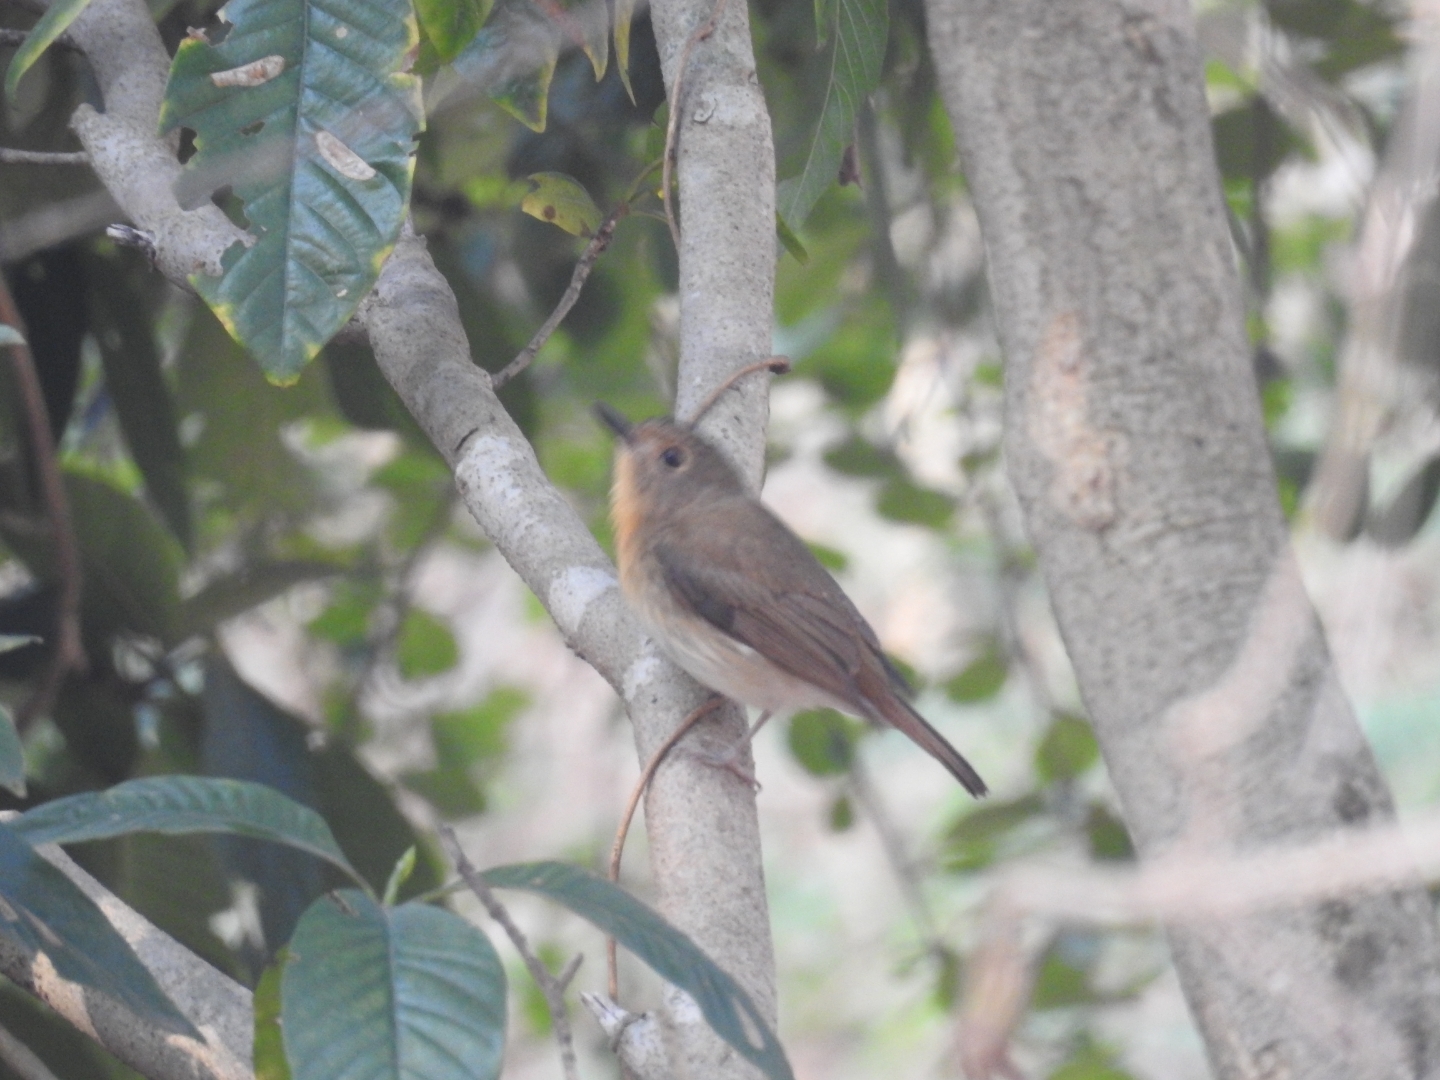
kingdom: Animalia
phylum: Chordata
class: Aves
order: Passeriformes
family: Muscicapidae
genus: Cyornis
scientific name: Cyornis rubeculoides
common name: Blue-throated blue flycatcher
